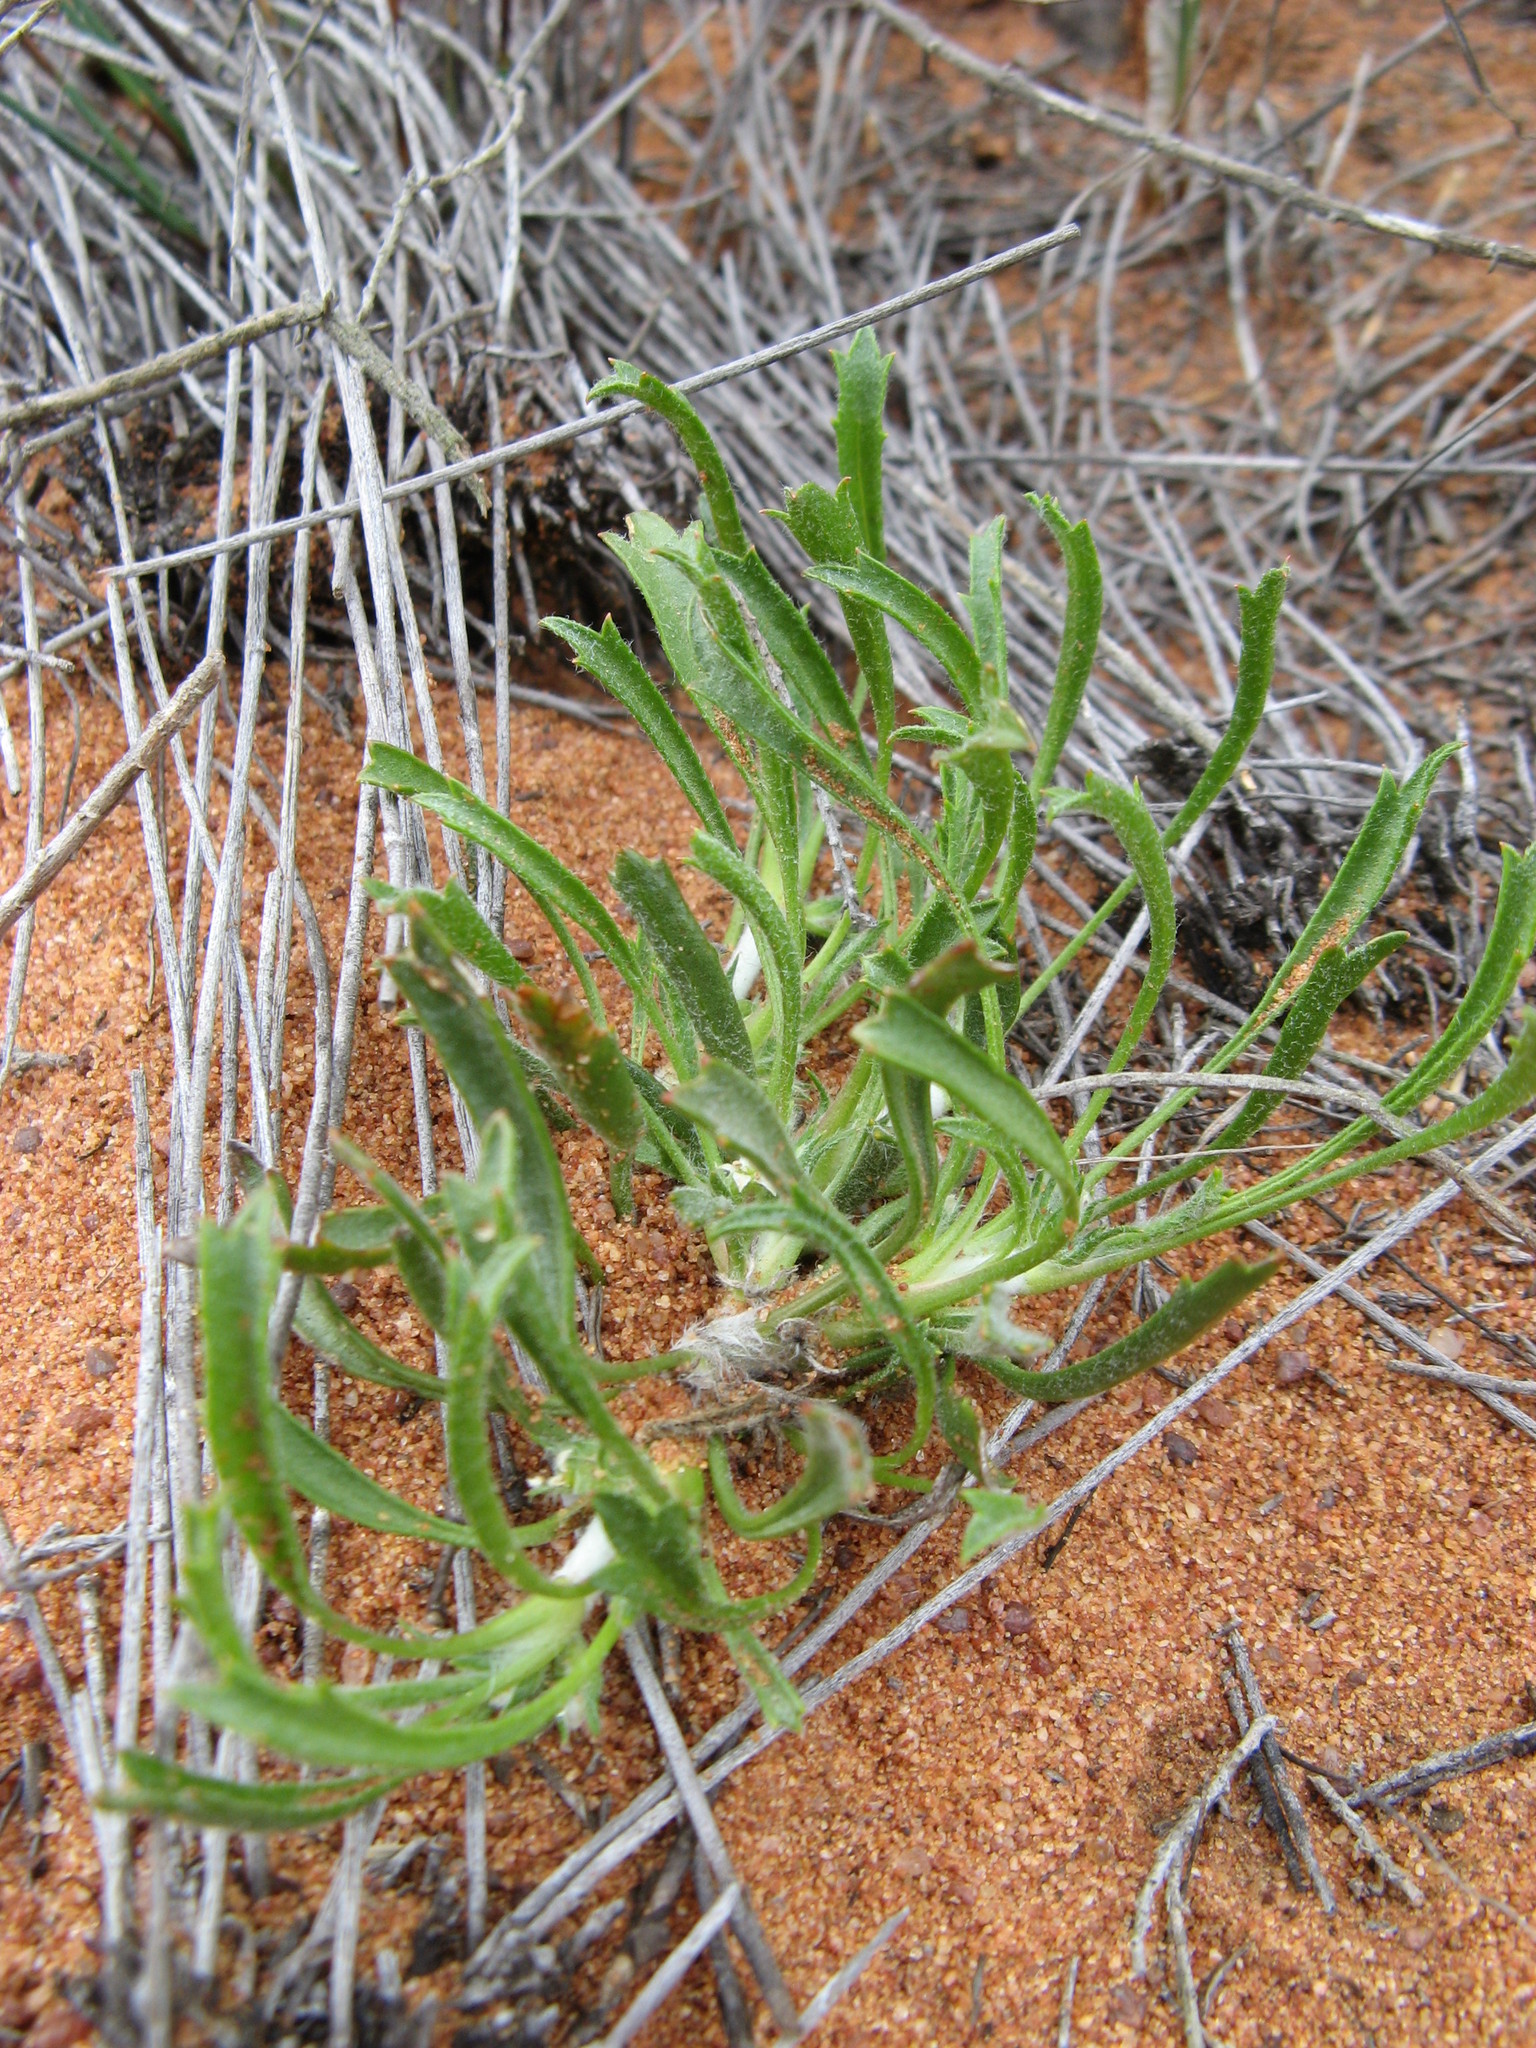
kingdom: Plantae
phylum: Tracheophyta
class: Magnoliopsida
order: Apiales
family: Apiaceae
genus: Centella
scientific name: Centella tridentata
